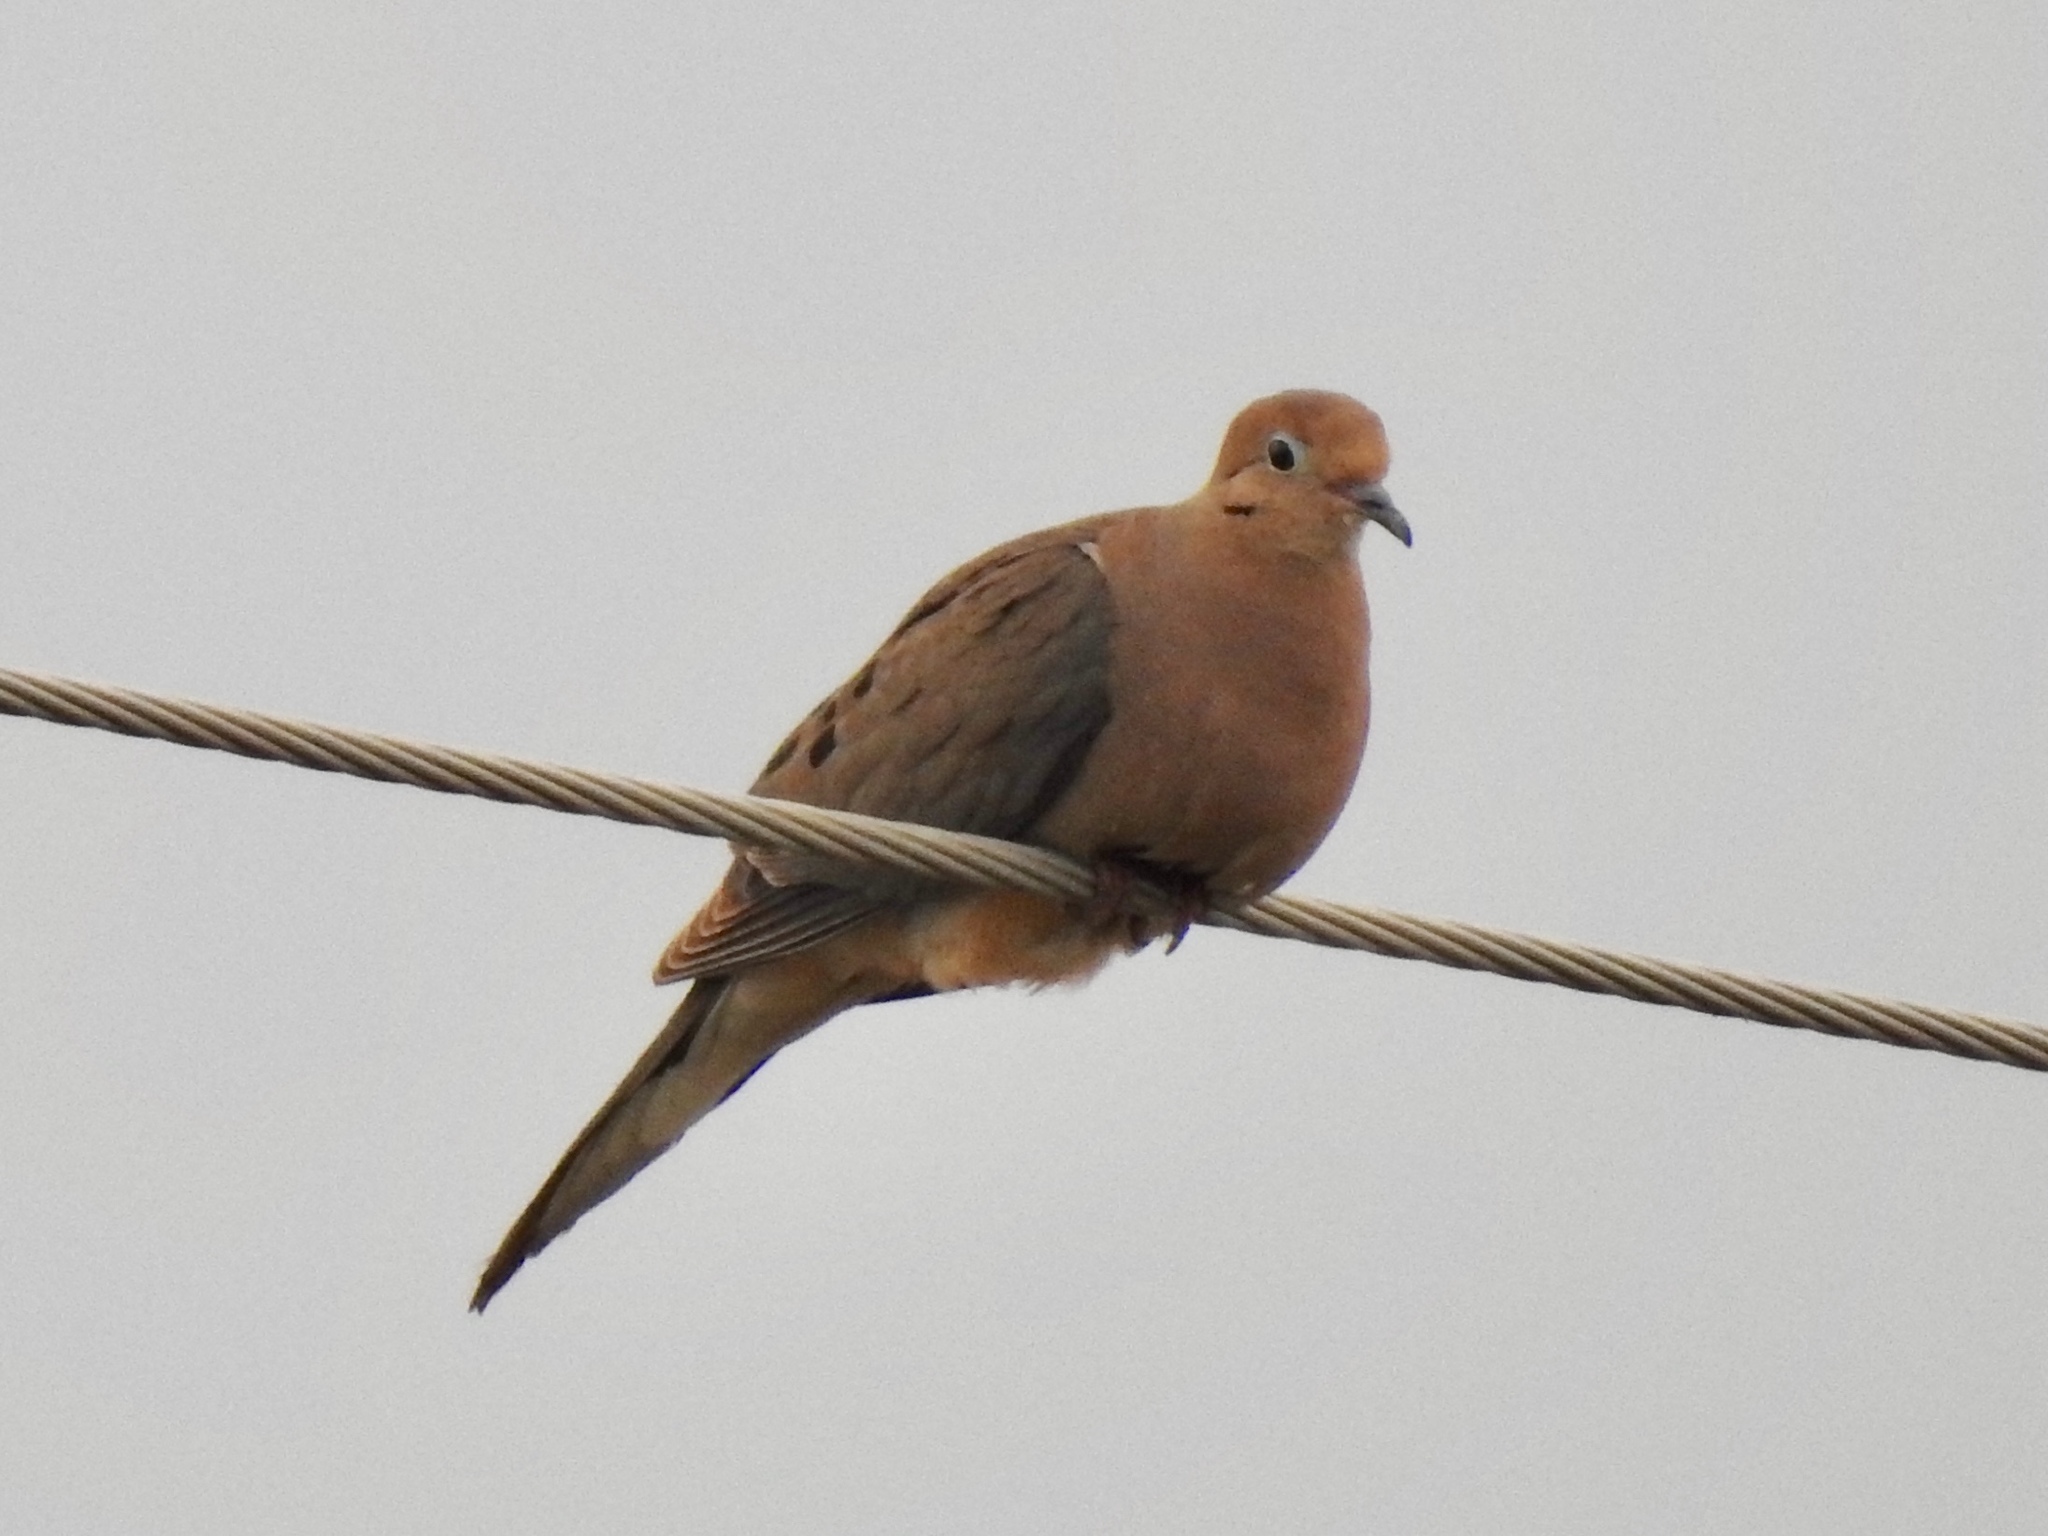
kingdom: Animalia
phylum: Chordata
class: Aves
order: Columbiformes
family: Columbidae
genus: Zenaida
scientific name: Zenaida macroura
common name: Mourning dove
